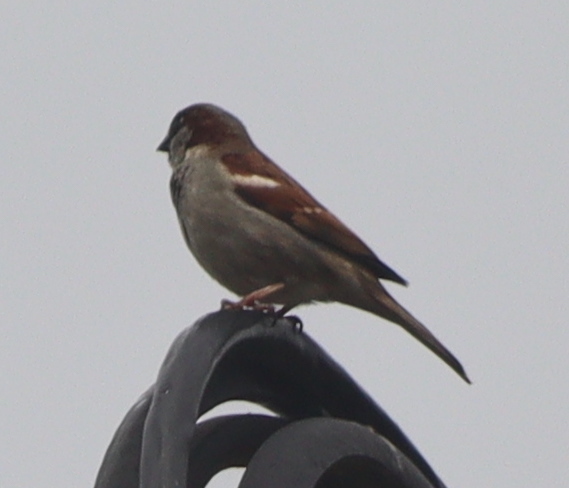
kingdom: Animalia
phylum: Chordata
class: Aves
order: Passeriformes
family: Passeridae
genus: Passer
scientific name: Passer domesticus
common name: House sparrow
